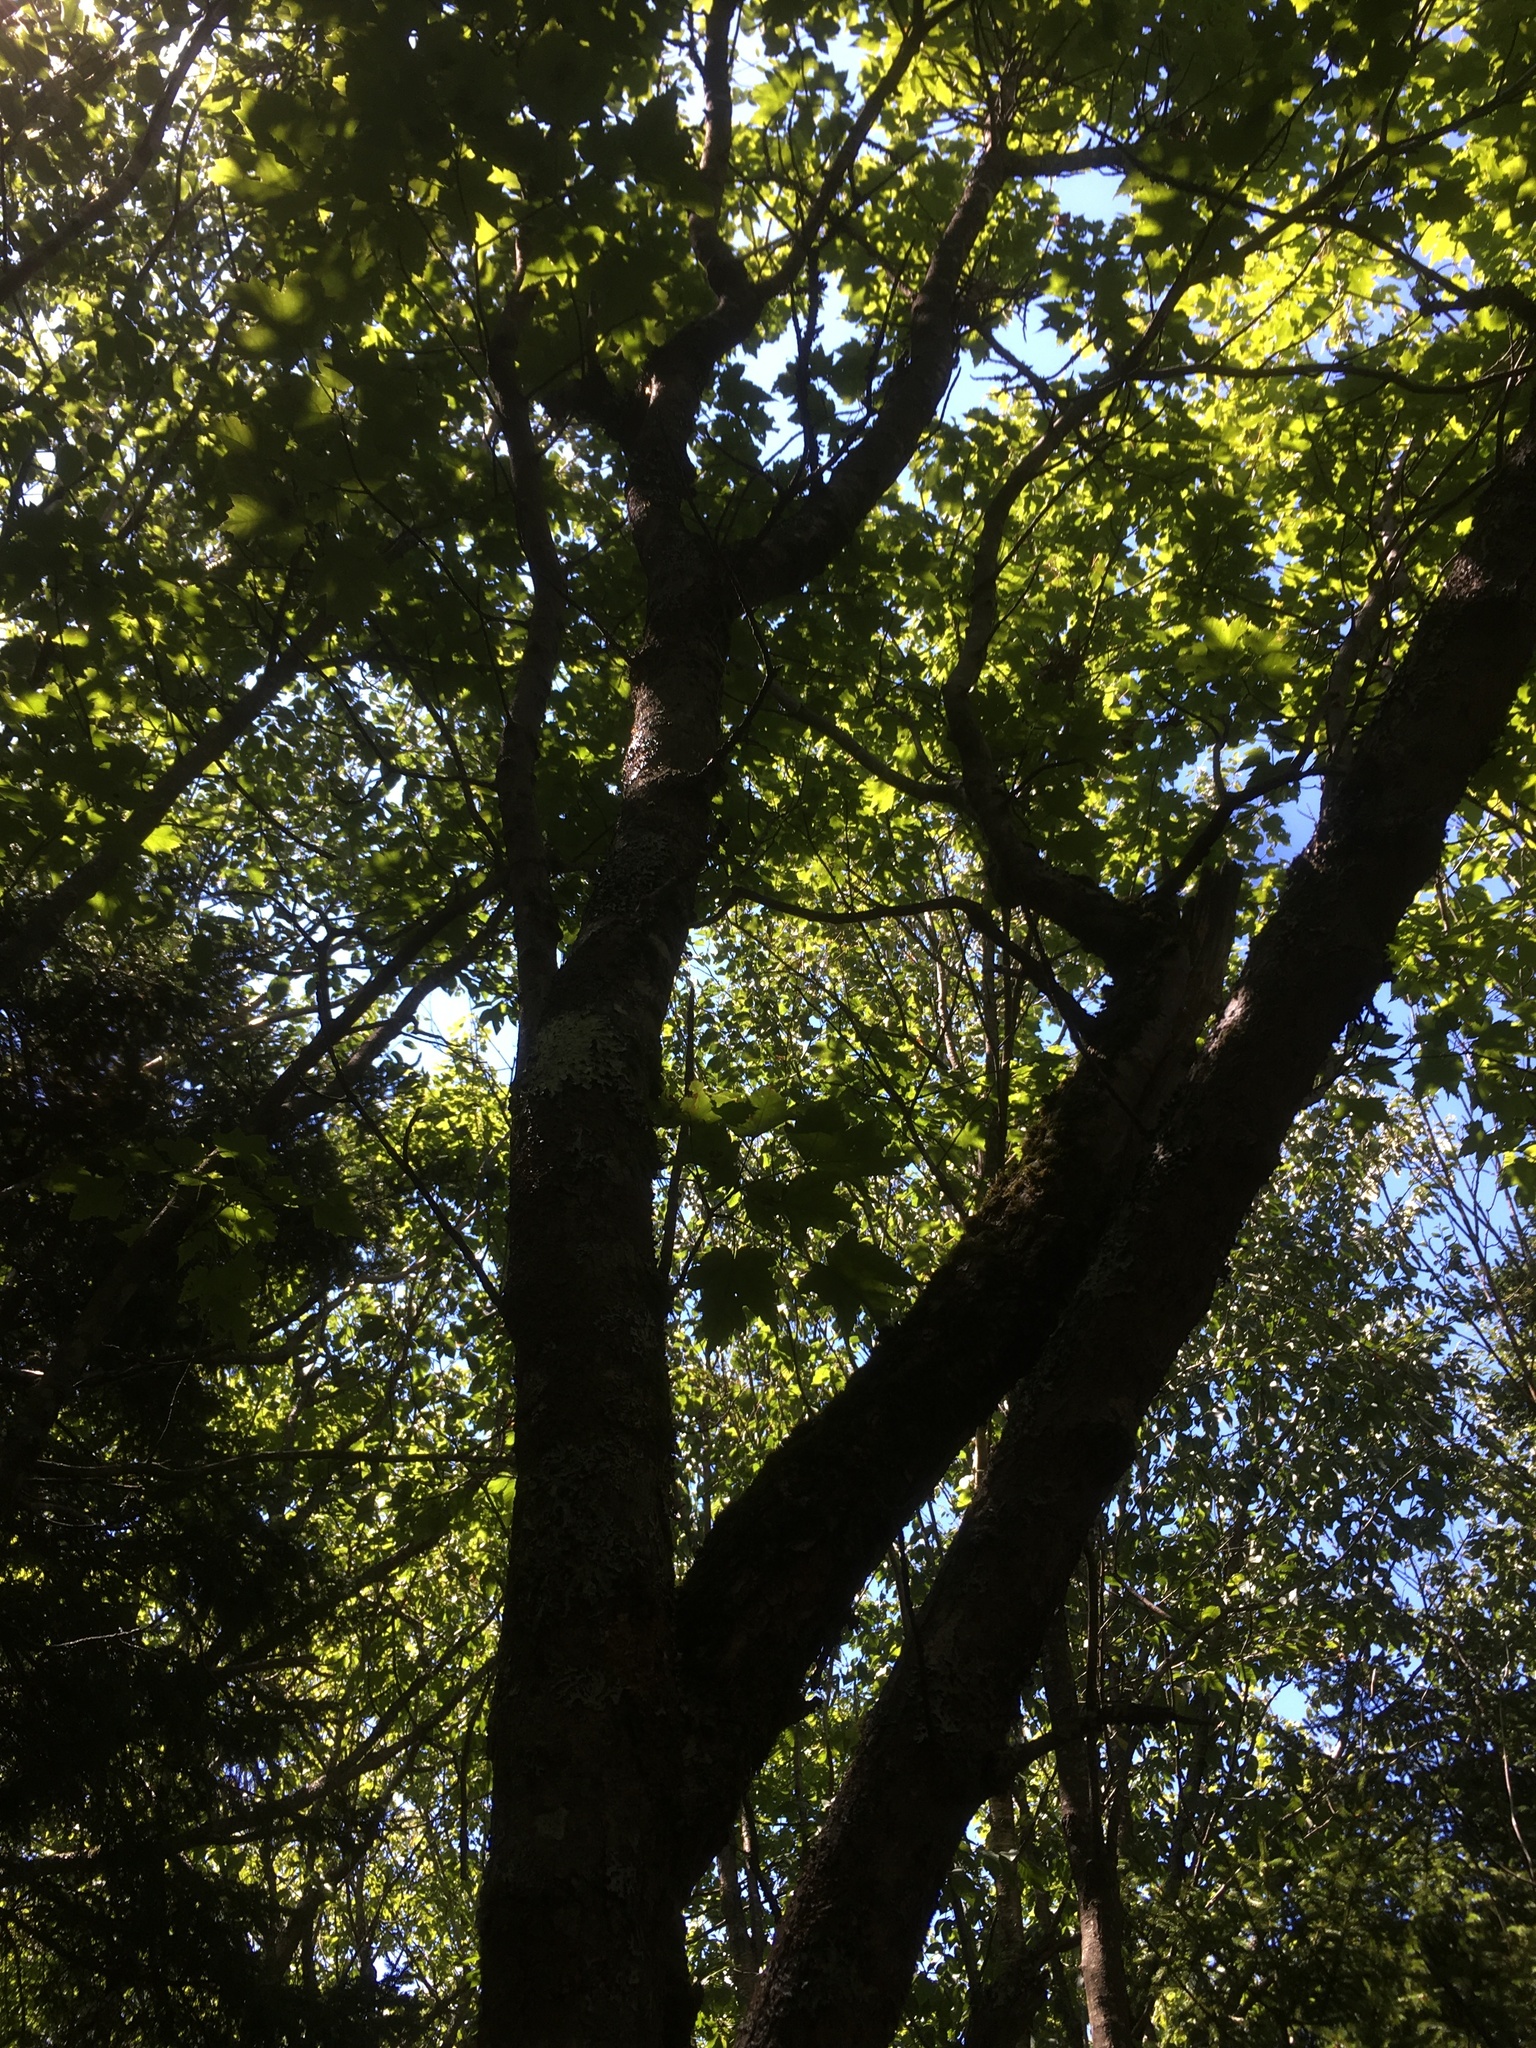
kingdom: Plantae
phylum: Tracheophyta
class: Magnoliopsida
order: Sapindales
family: Sapindaceae
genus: Acer
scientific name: Acer rubrum
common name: Red maple
